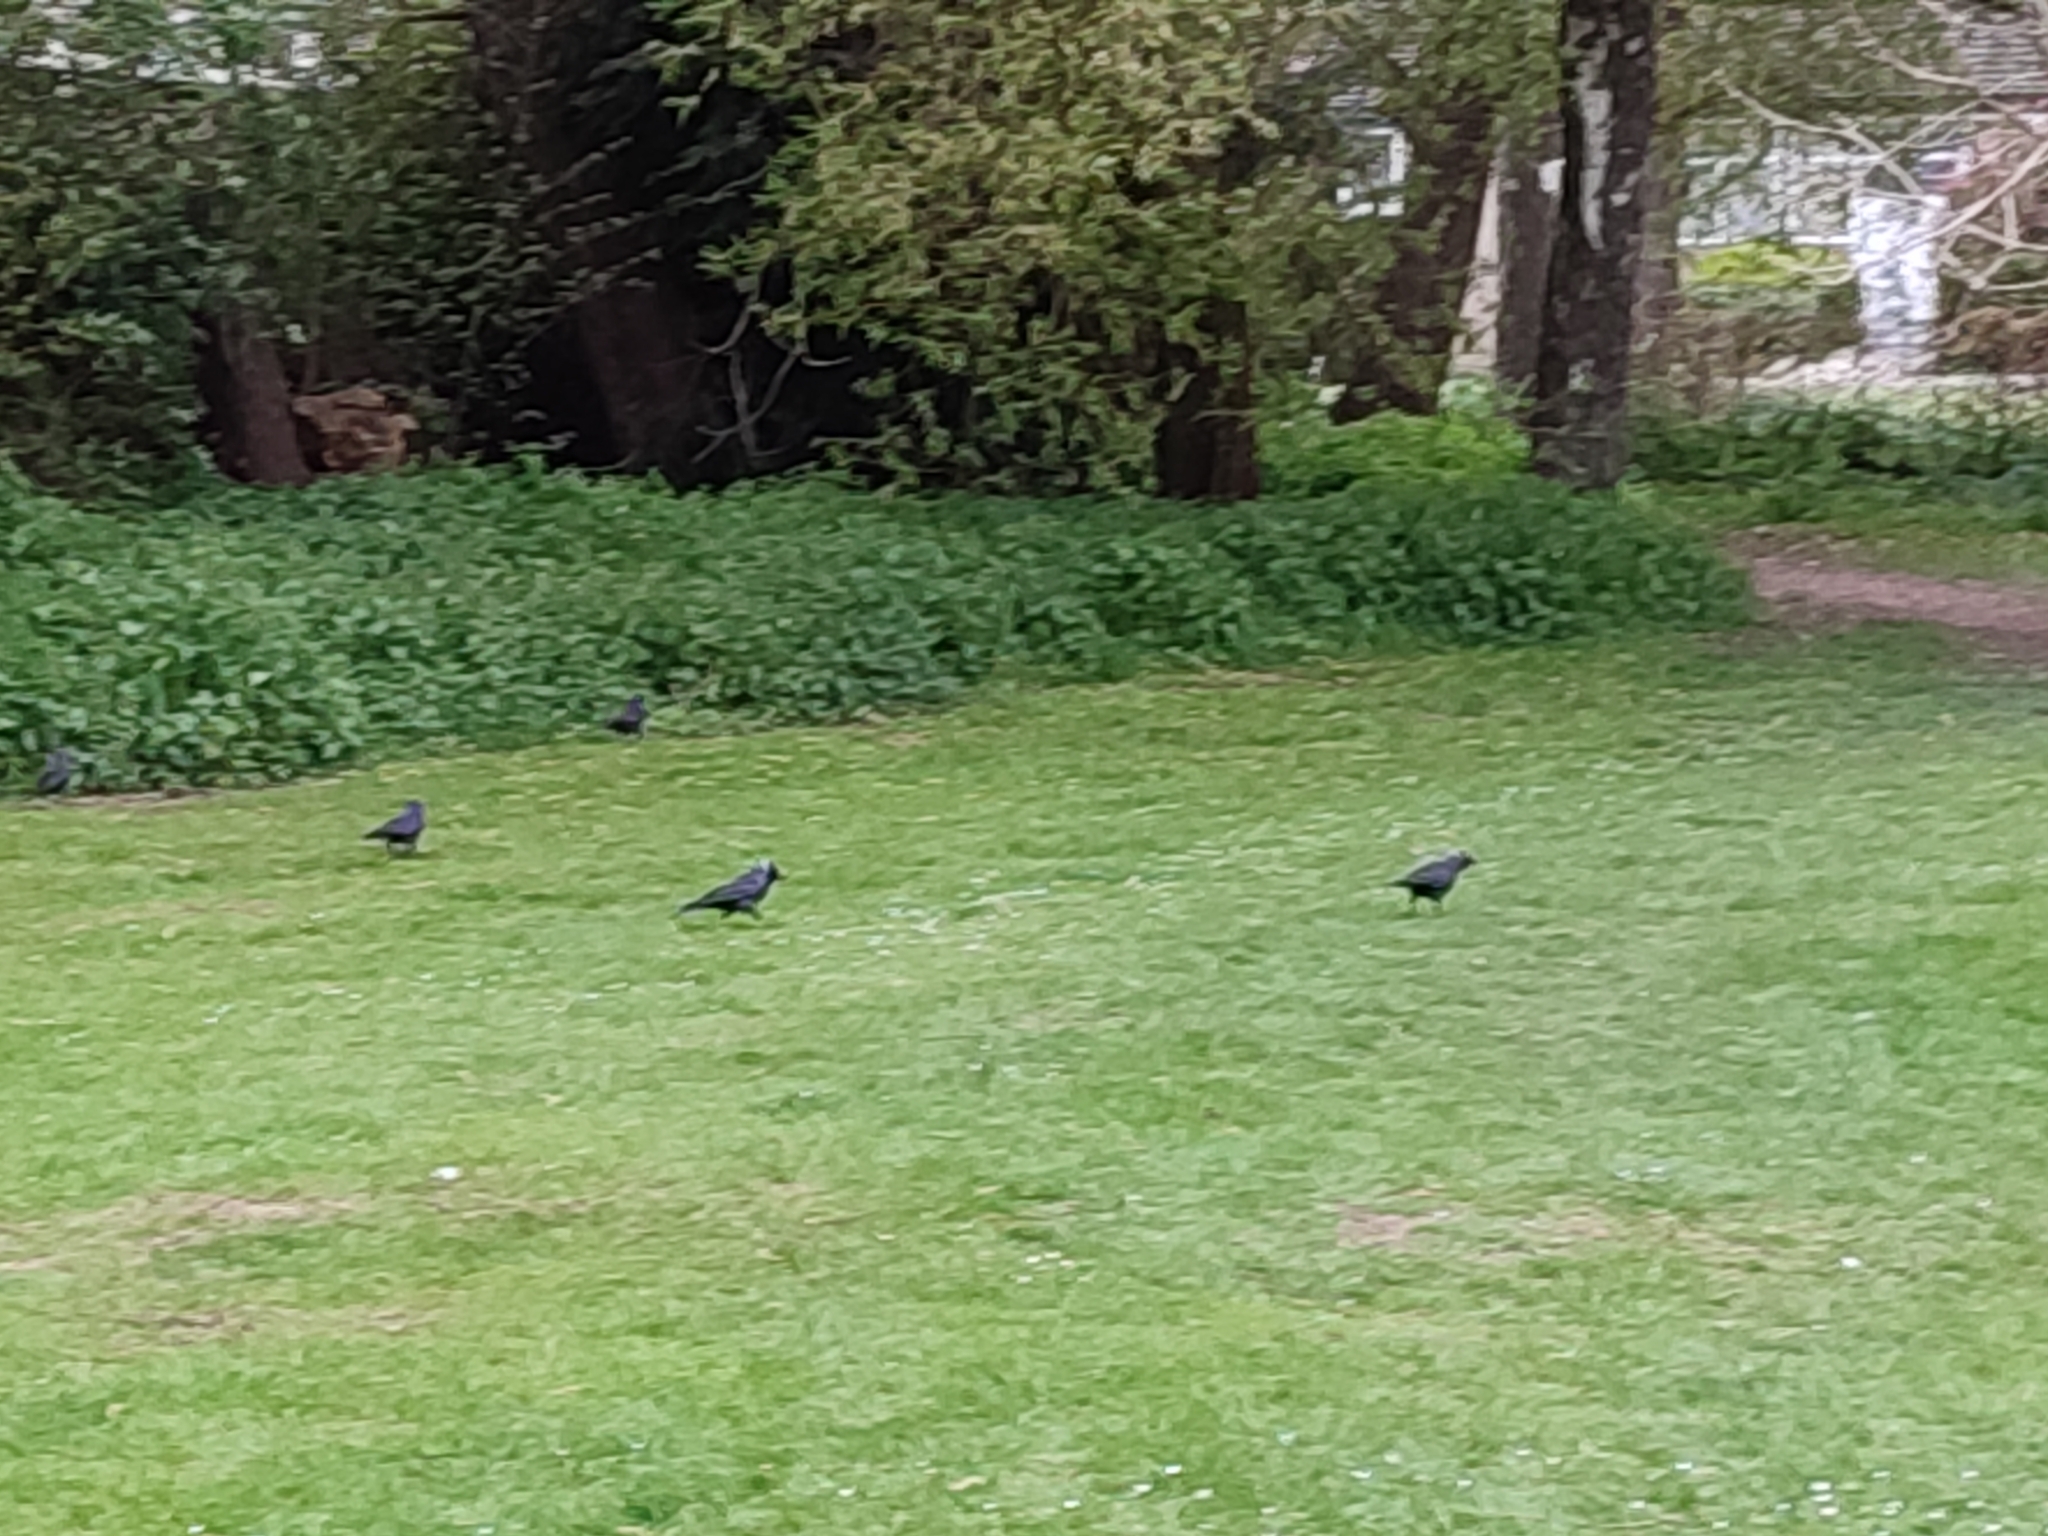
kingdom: Animalia
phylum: Chordata
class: Aves
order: Passeriformes
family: Corvidae
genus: Coloeus
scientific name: Coloeus monedula
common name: Western jackdaw
